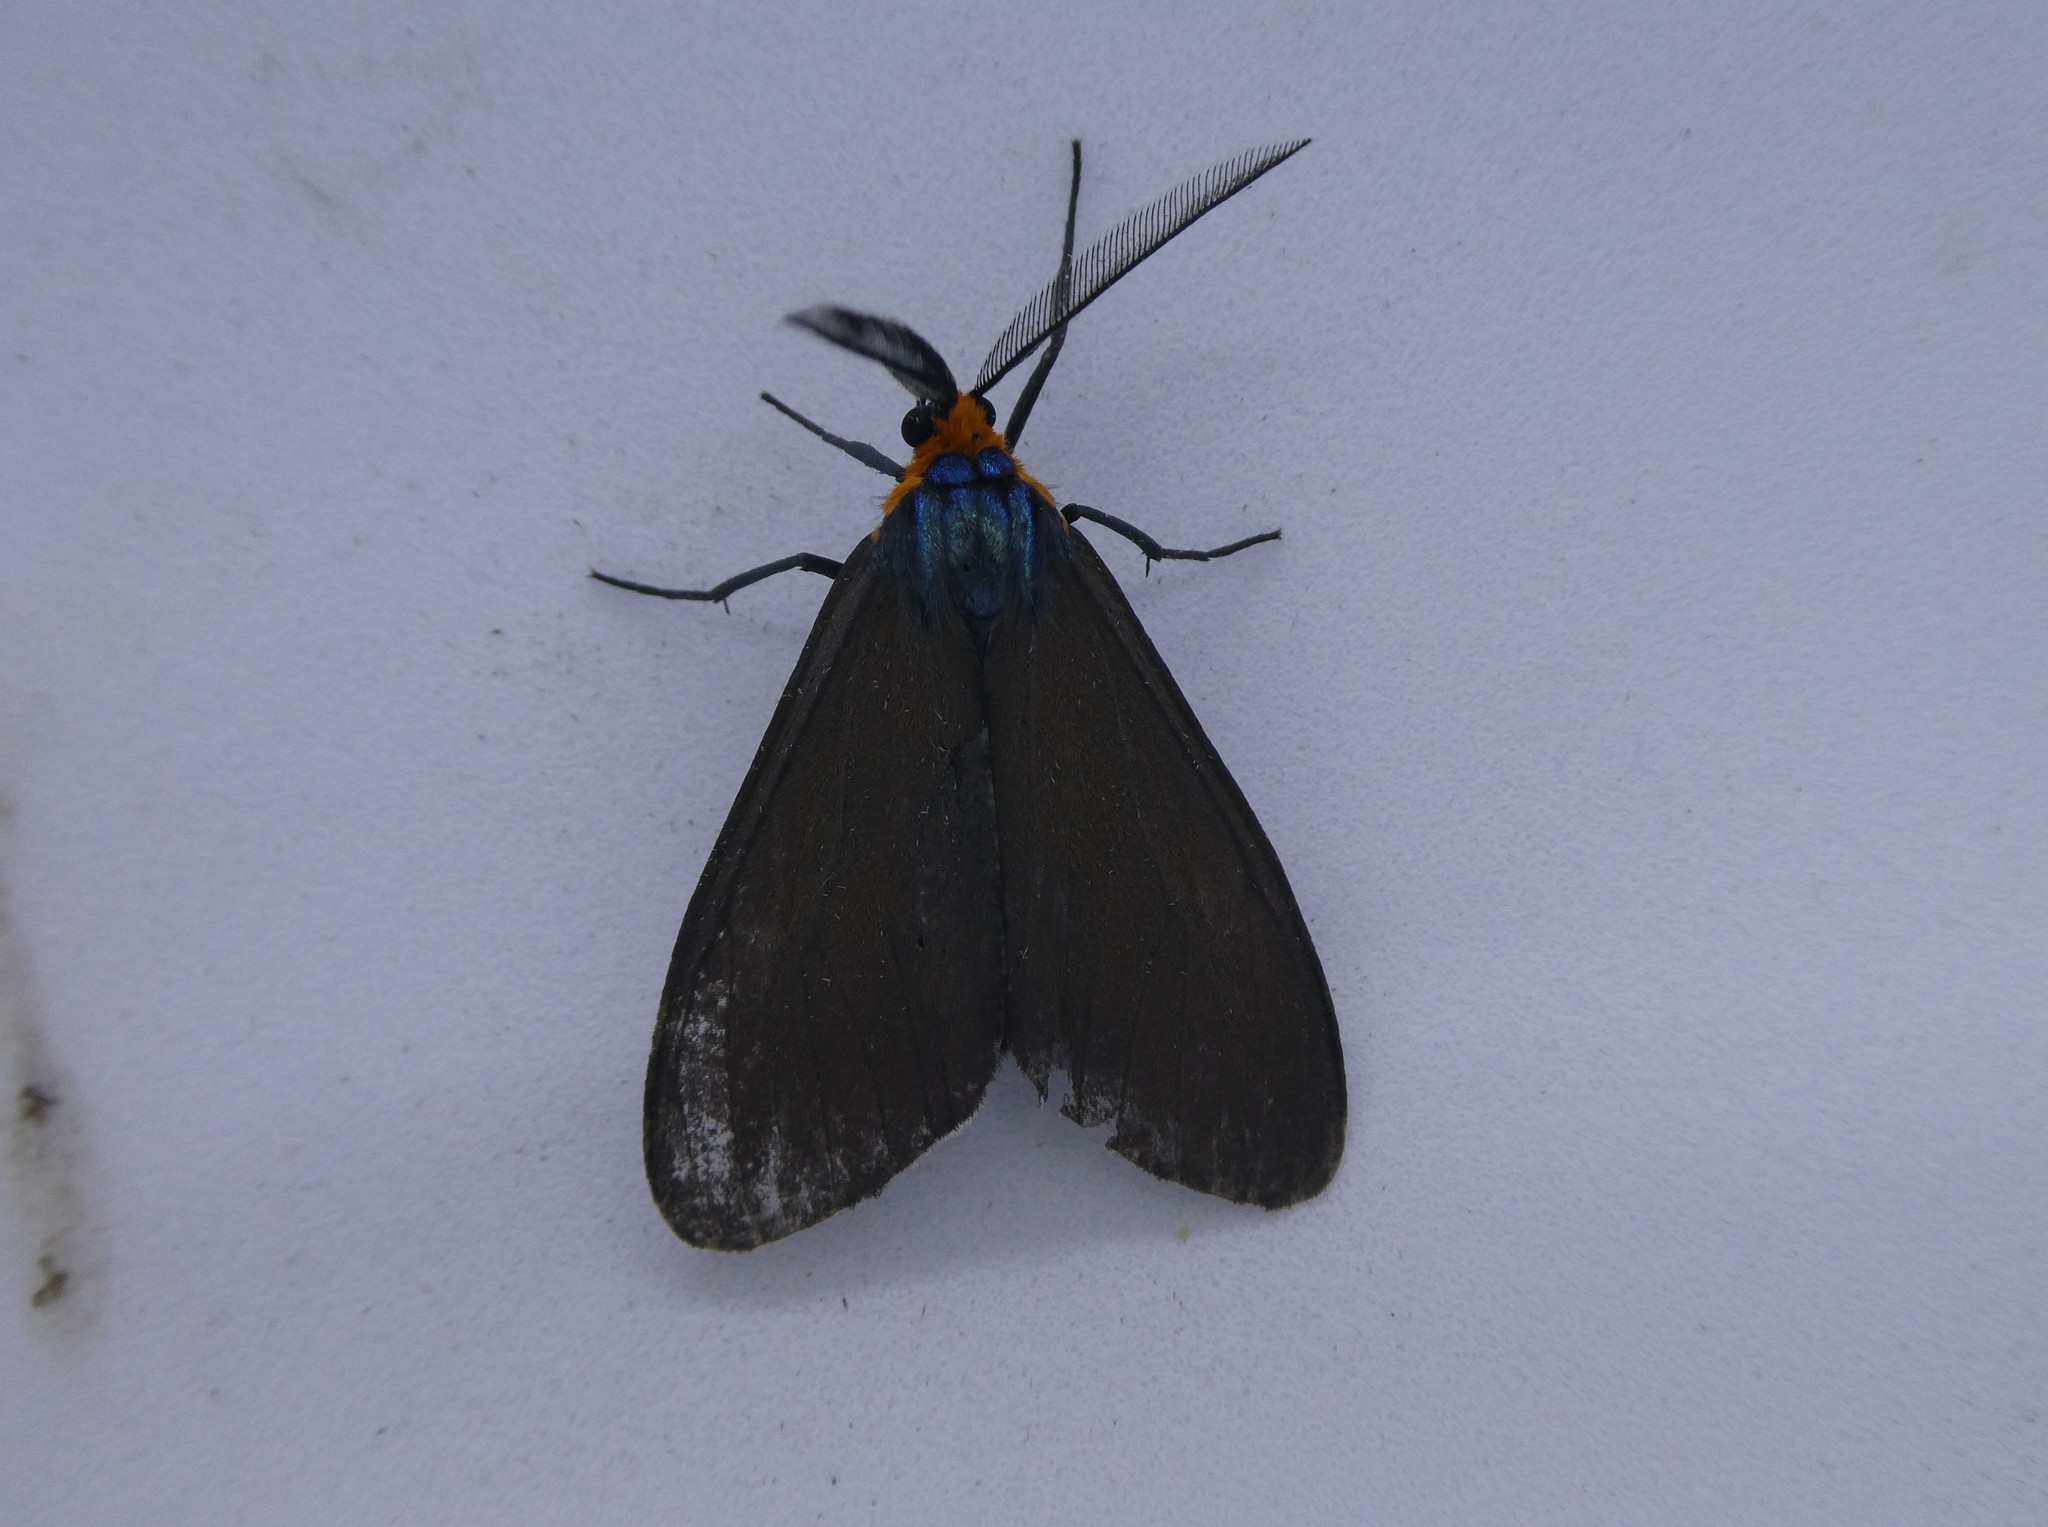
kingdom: Animalia
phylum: Arthropoda
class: Insecta
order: Lepidoptera
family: Erebidae
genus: Ctenucha
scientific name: Ctenucha virginica
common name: Virginia ctenucha moth
